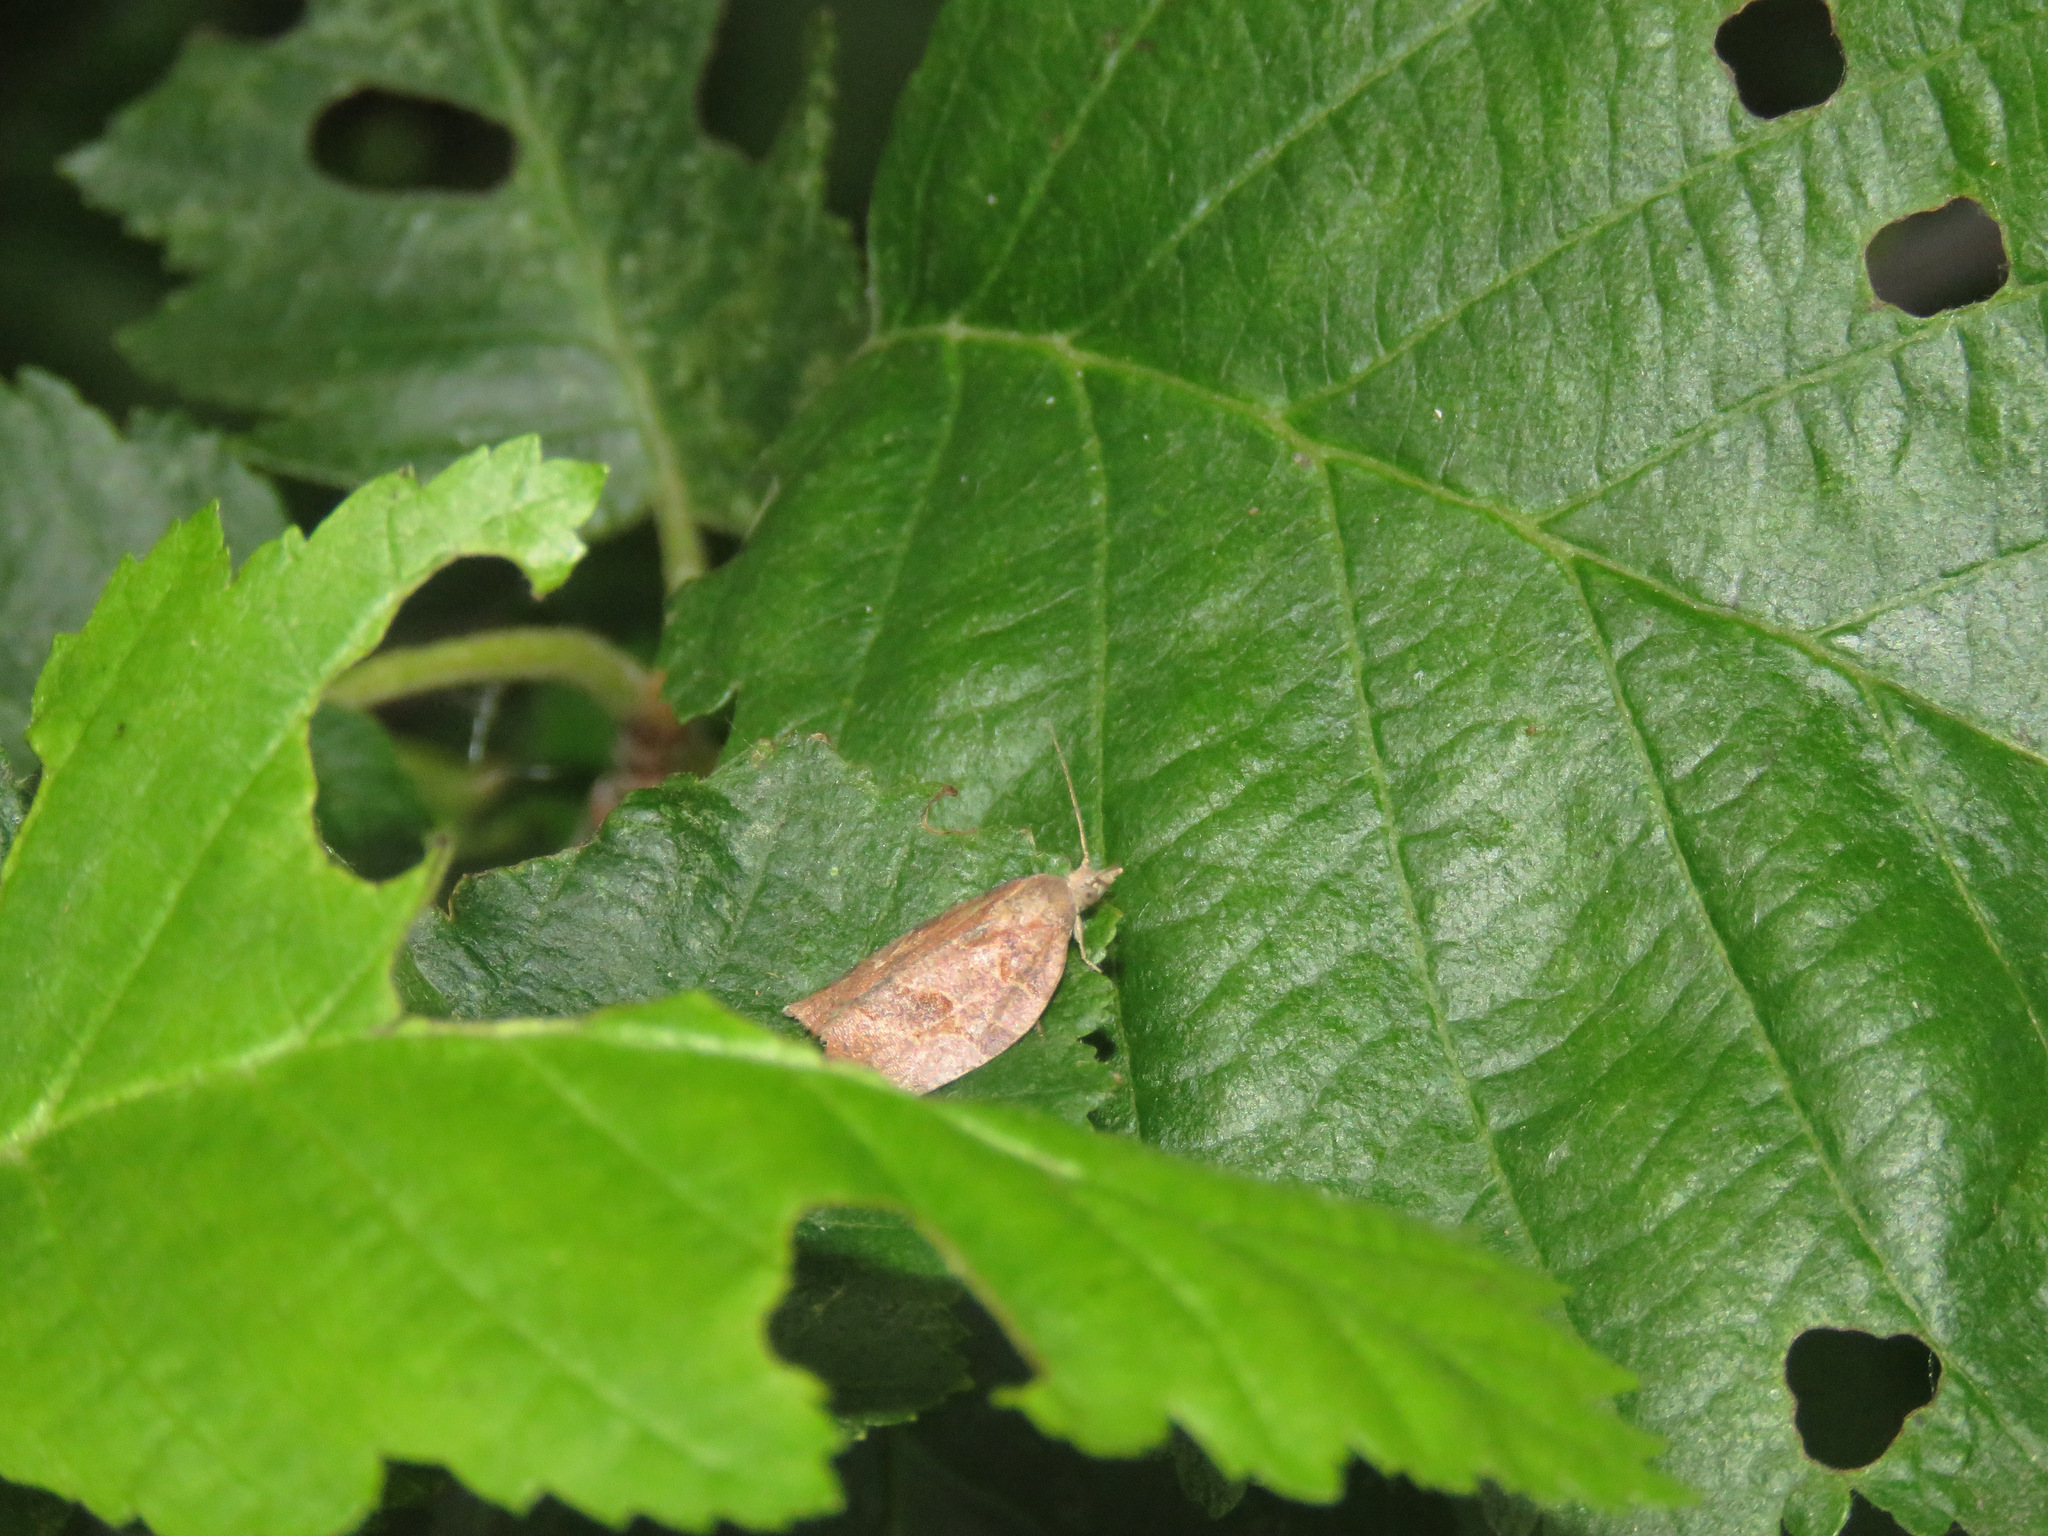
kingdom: Animalia
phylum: Arthropoda
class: Insecta
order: Lepidoptera
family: Tortricidae
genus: Pandemis
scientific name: Pandemis canadana
